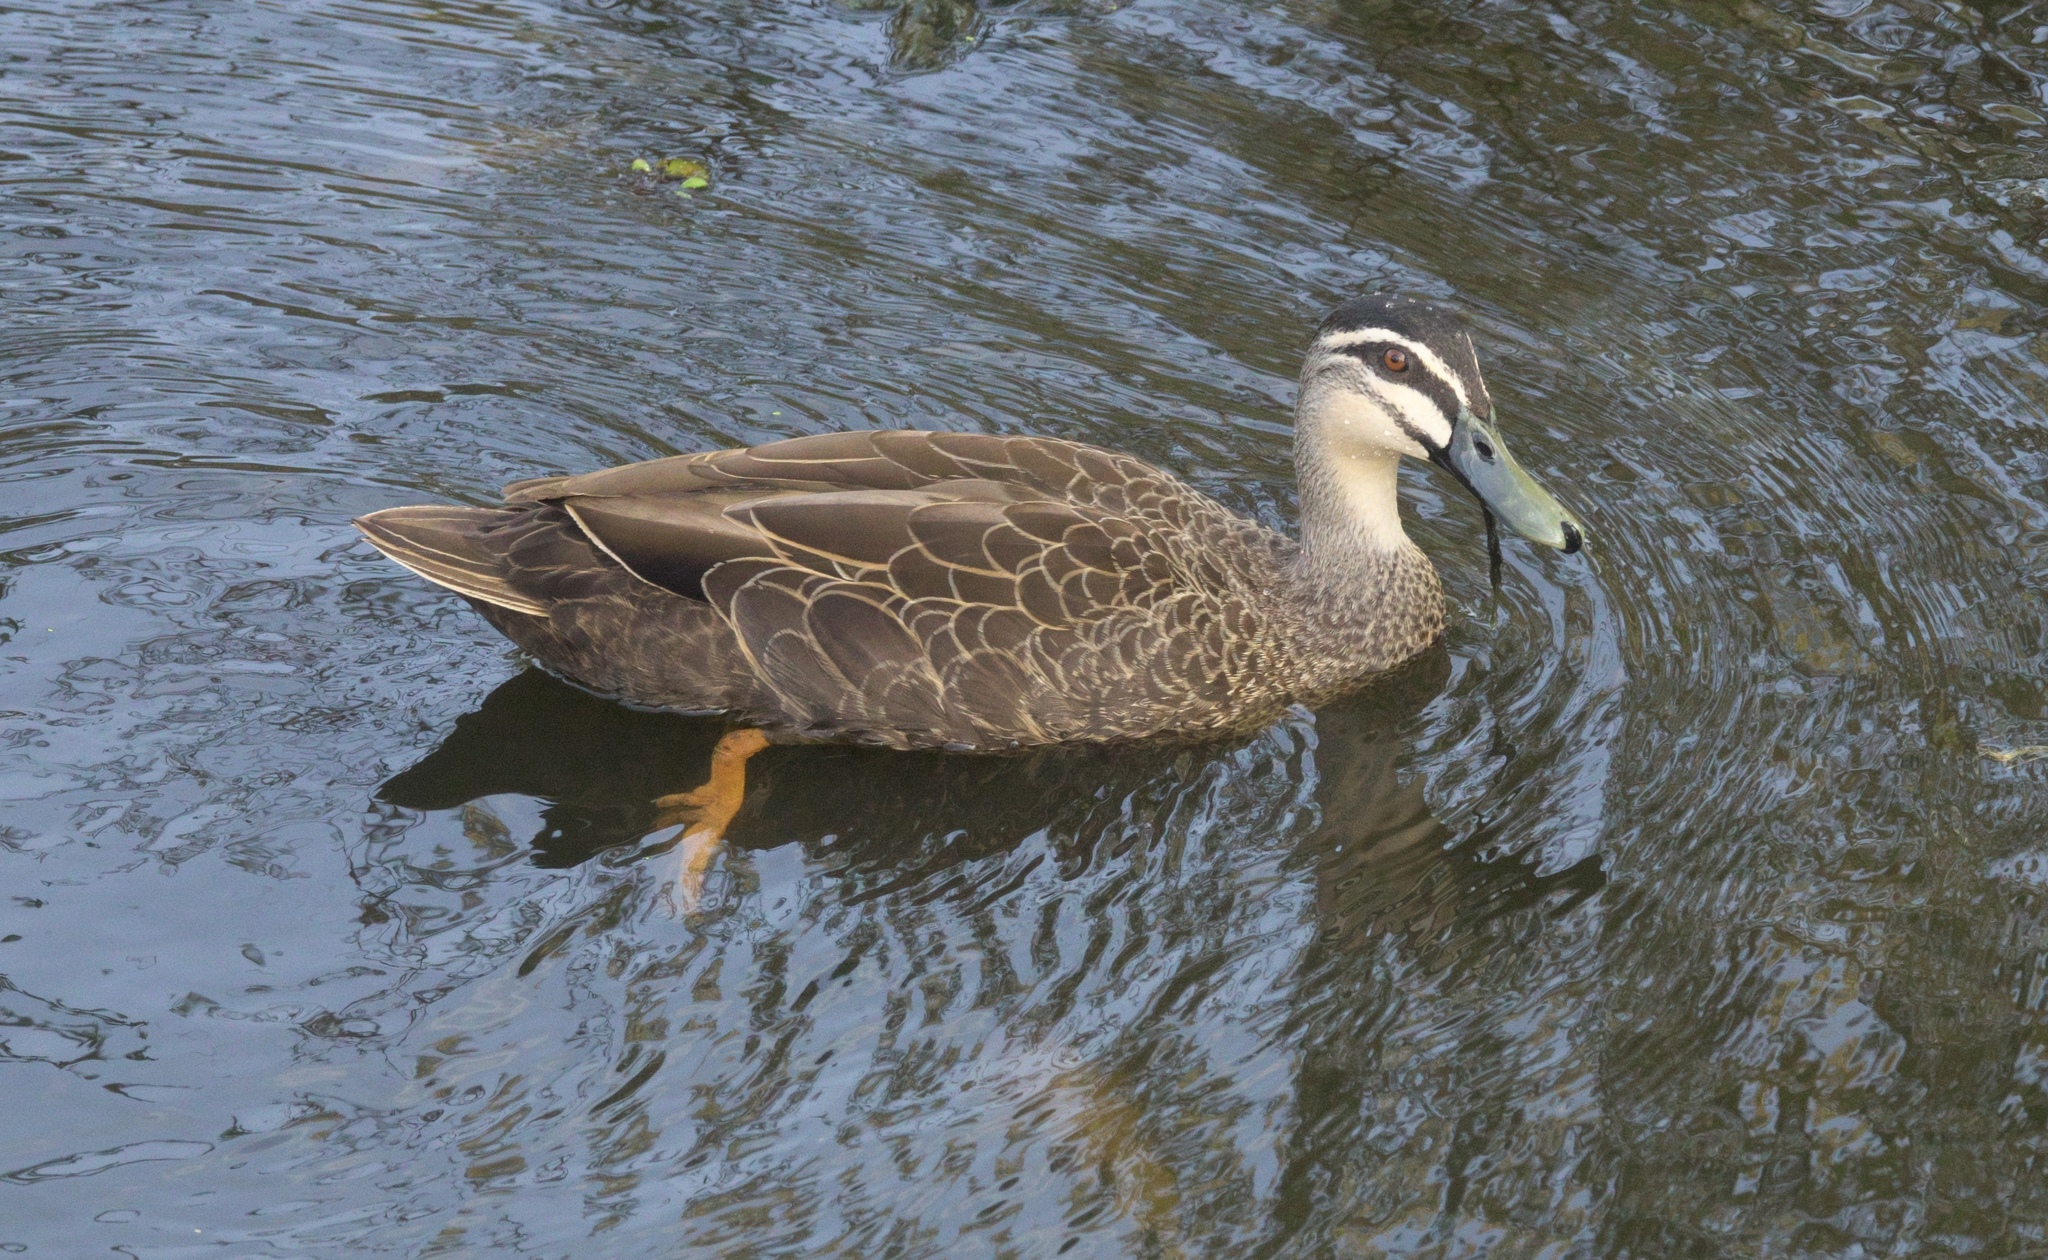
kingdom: Animalia
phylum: Chordata
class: Aves
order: Anseriformes
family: Anatidae
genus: Anas
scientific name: Anas
